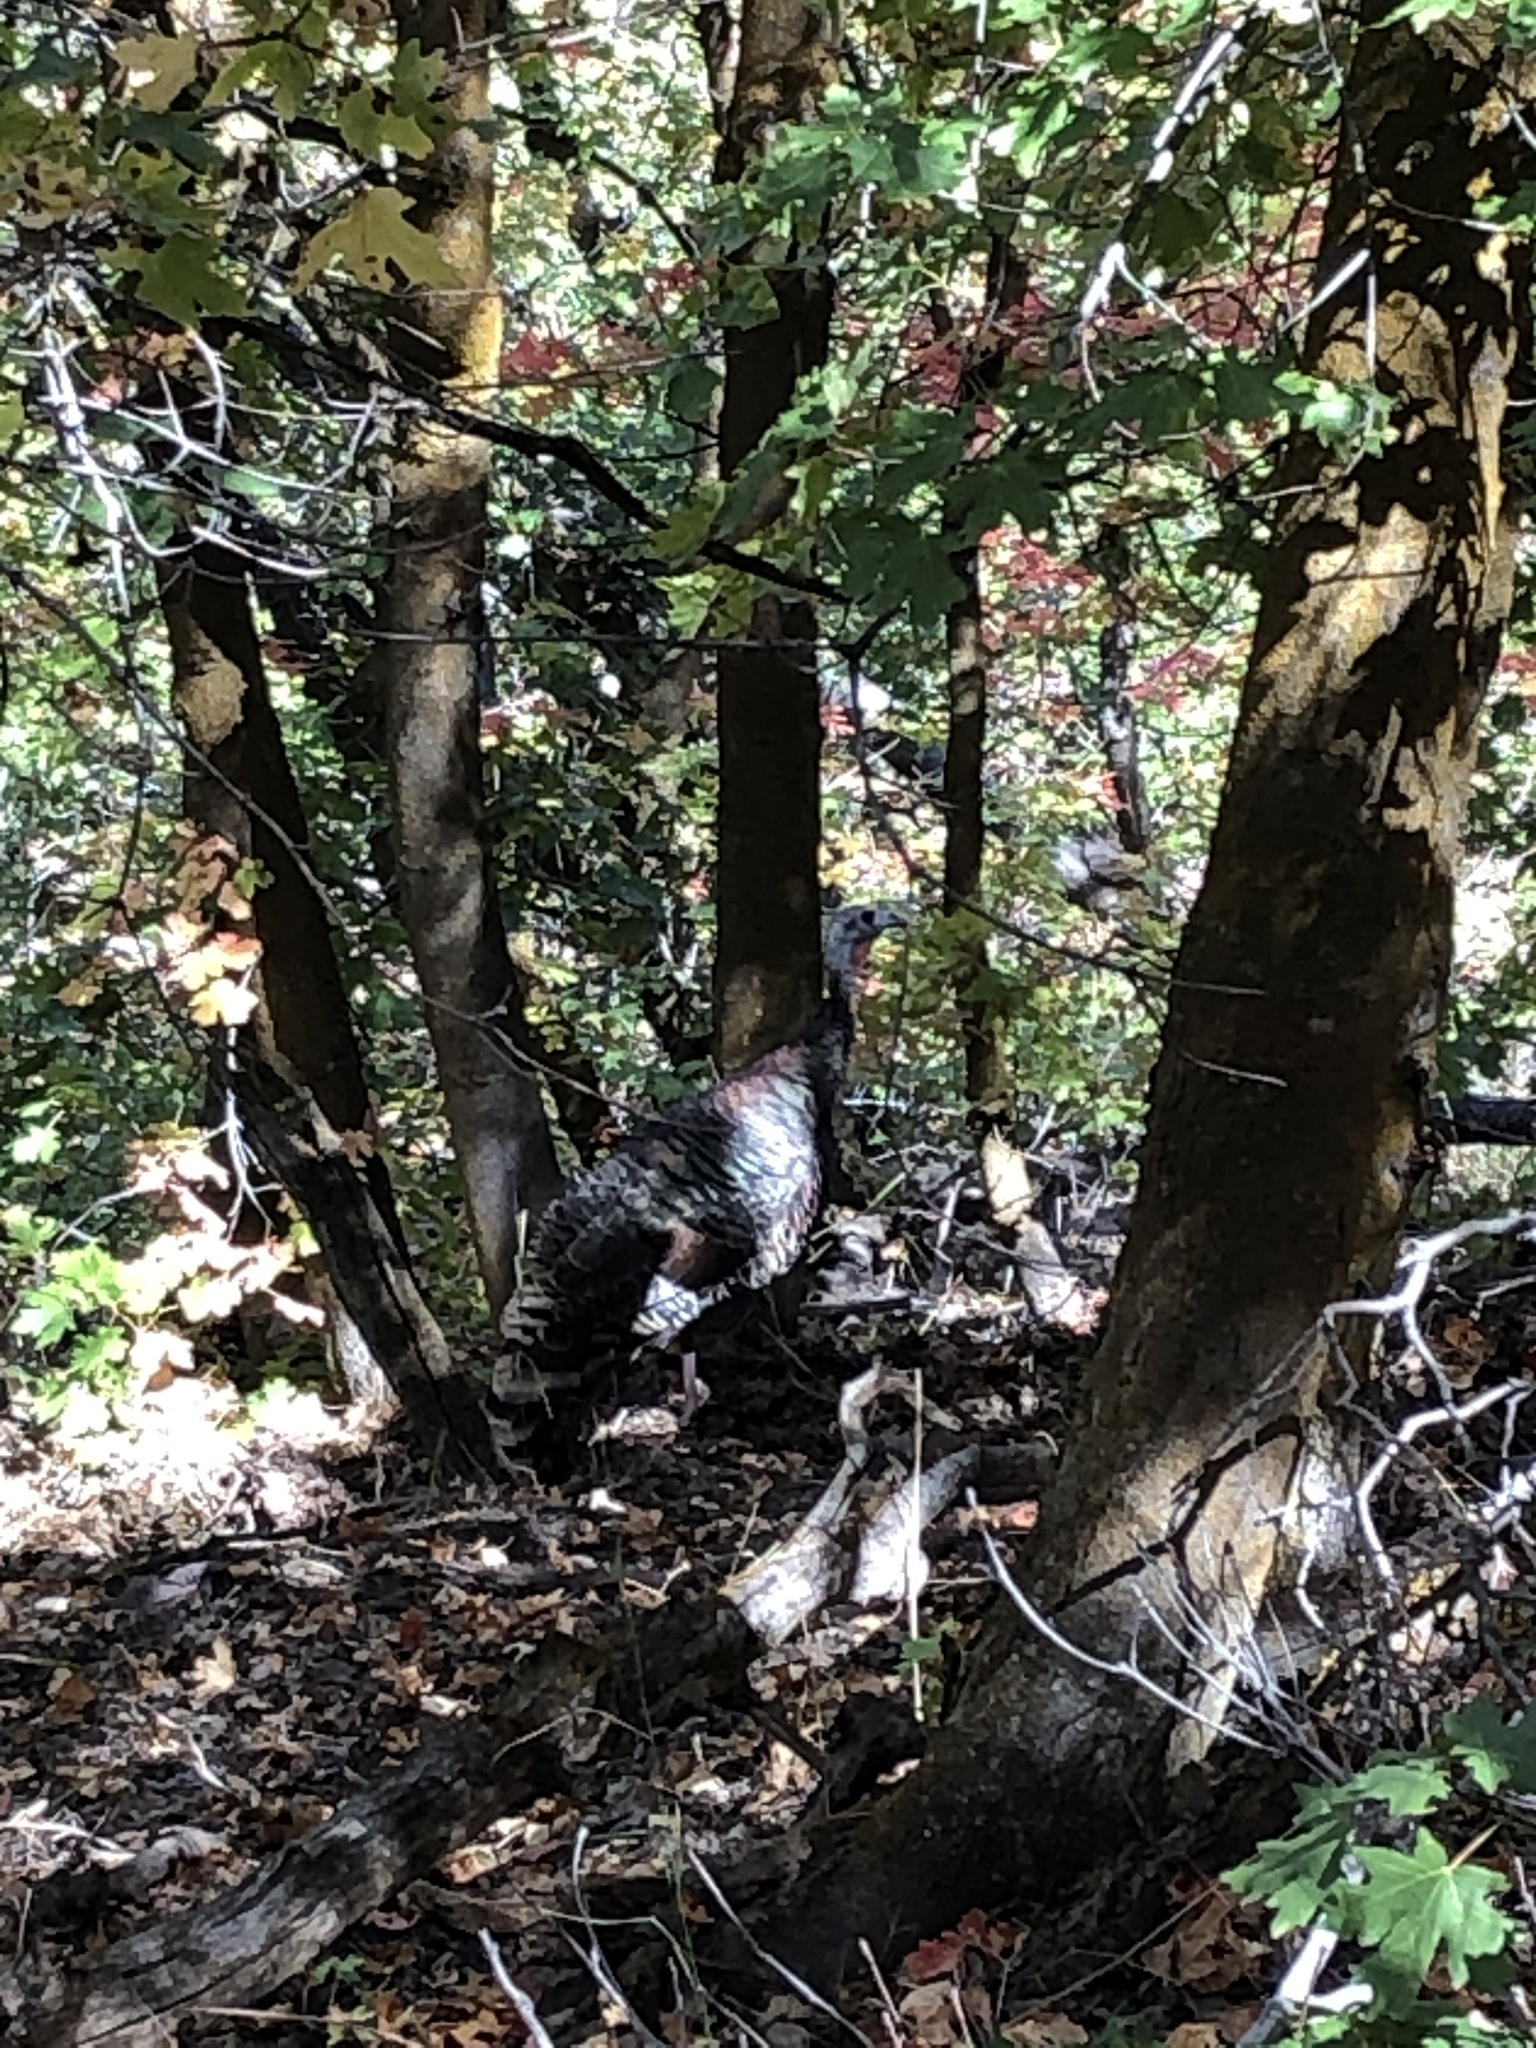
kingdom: Animalia
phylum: Chordata
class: Aves
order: Galliformes
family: Phasianidae
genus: Meleagris
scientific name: Meleagris gallopavo
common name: Wild turkey
